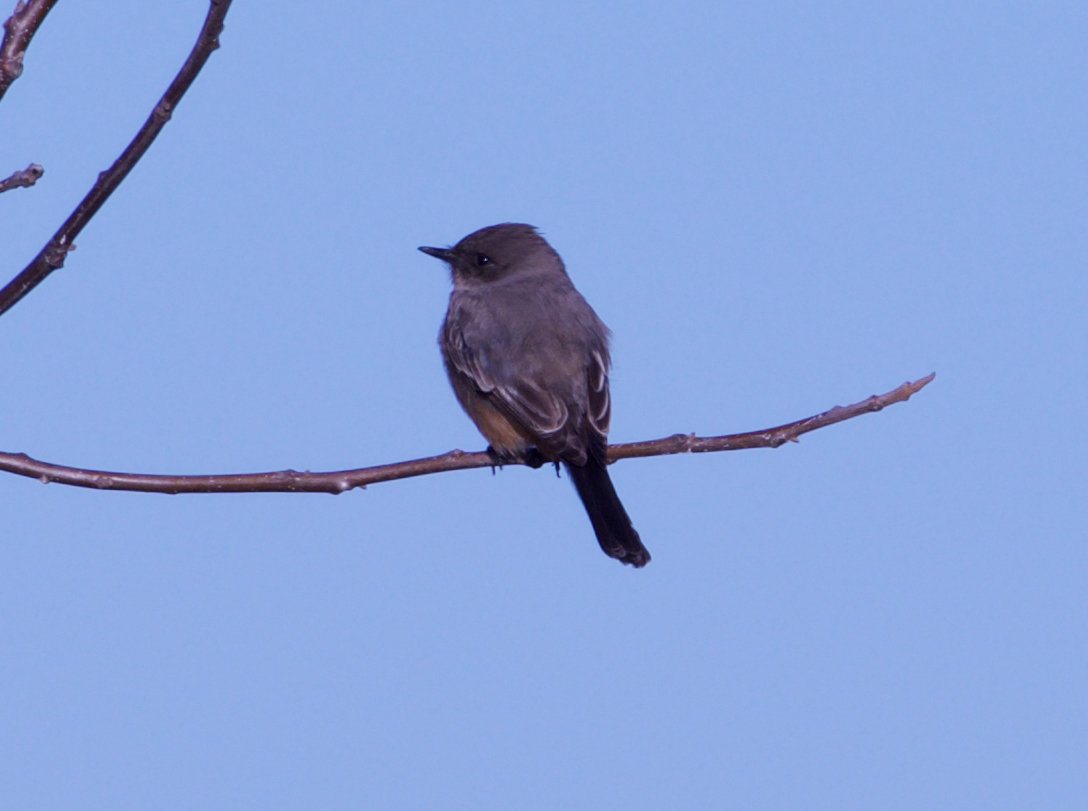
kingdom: Animalia
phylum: Chordata
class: Aves
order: Passeriformes
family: Tyrannidae
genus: Sayornis
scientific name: Sayornis saya
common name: Say's phoebe
